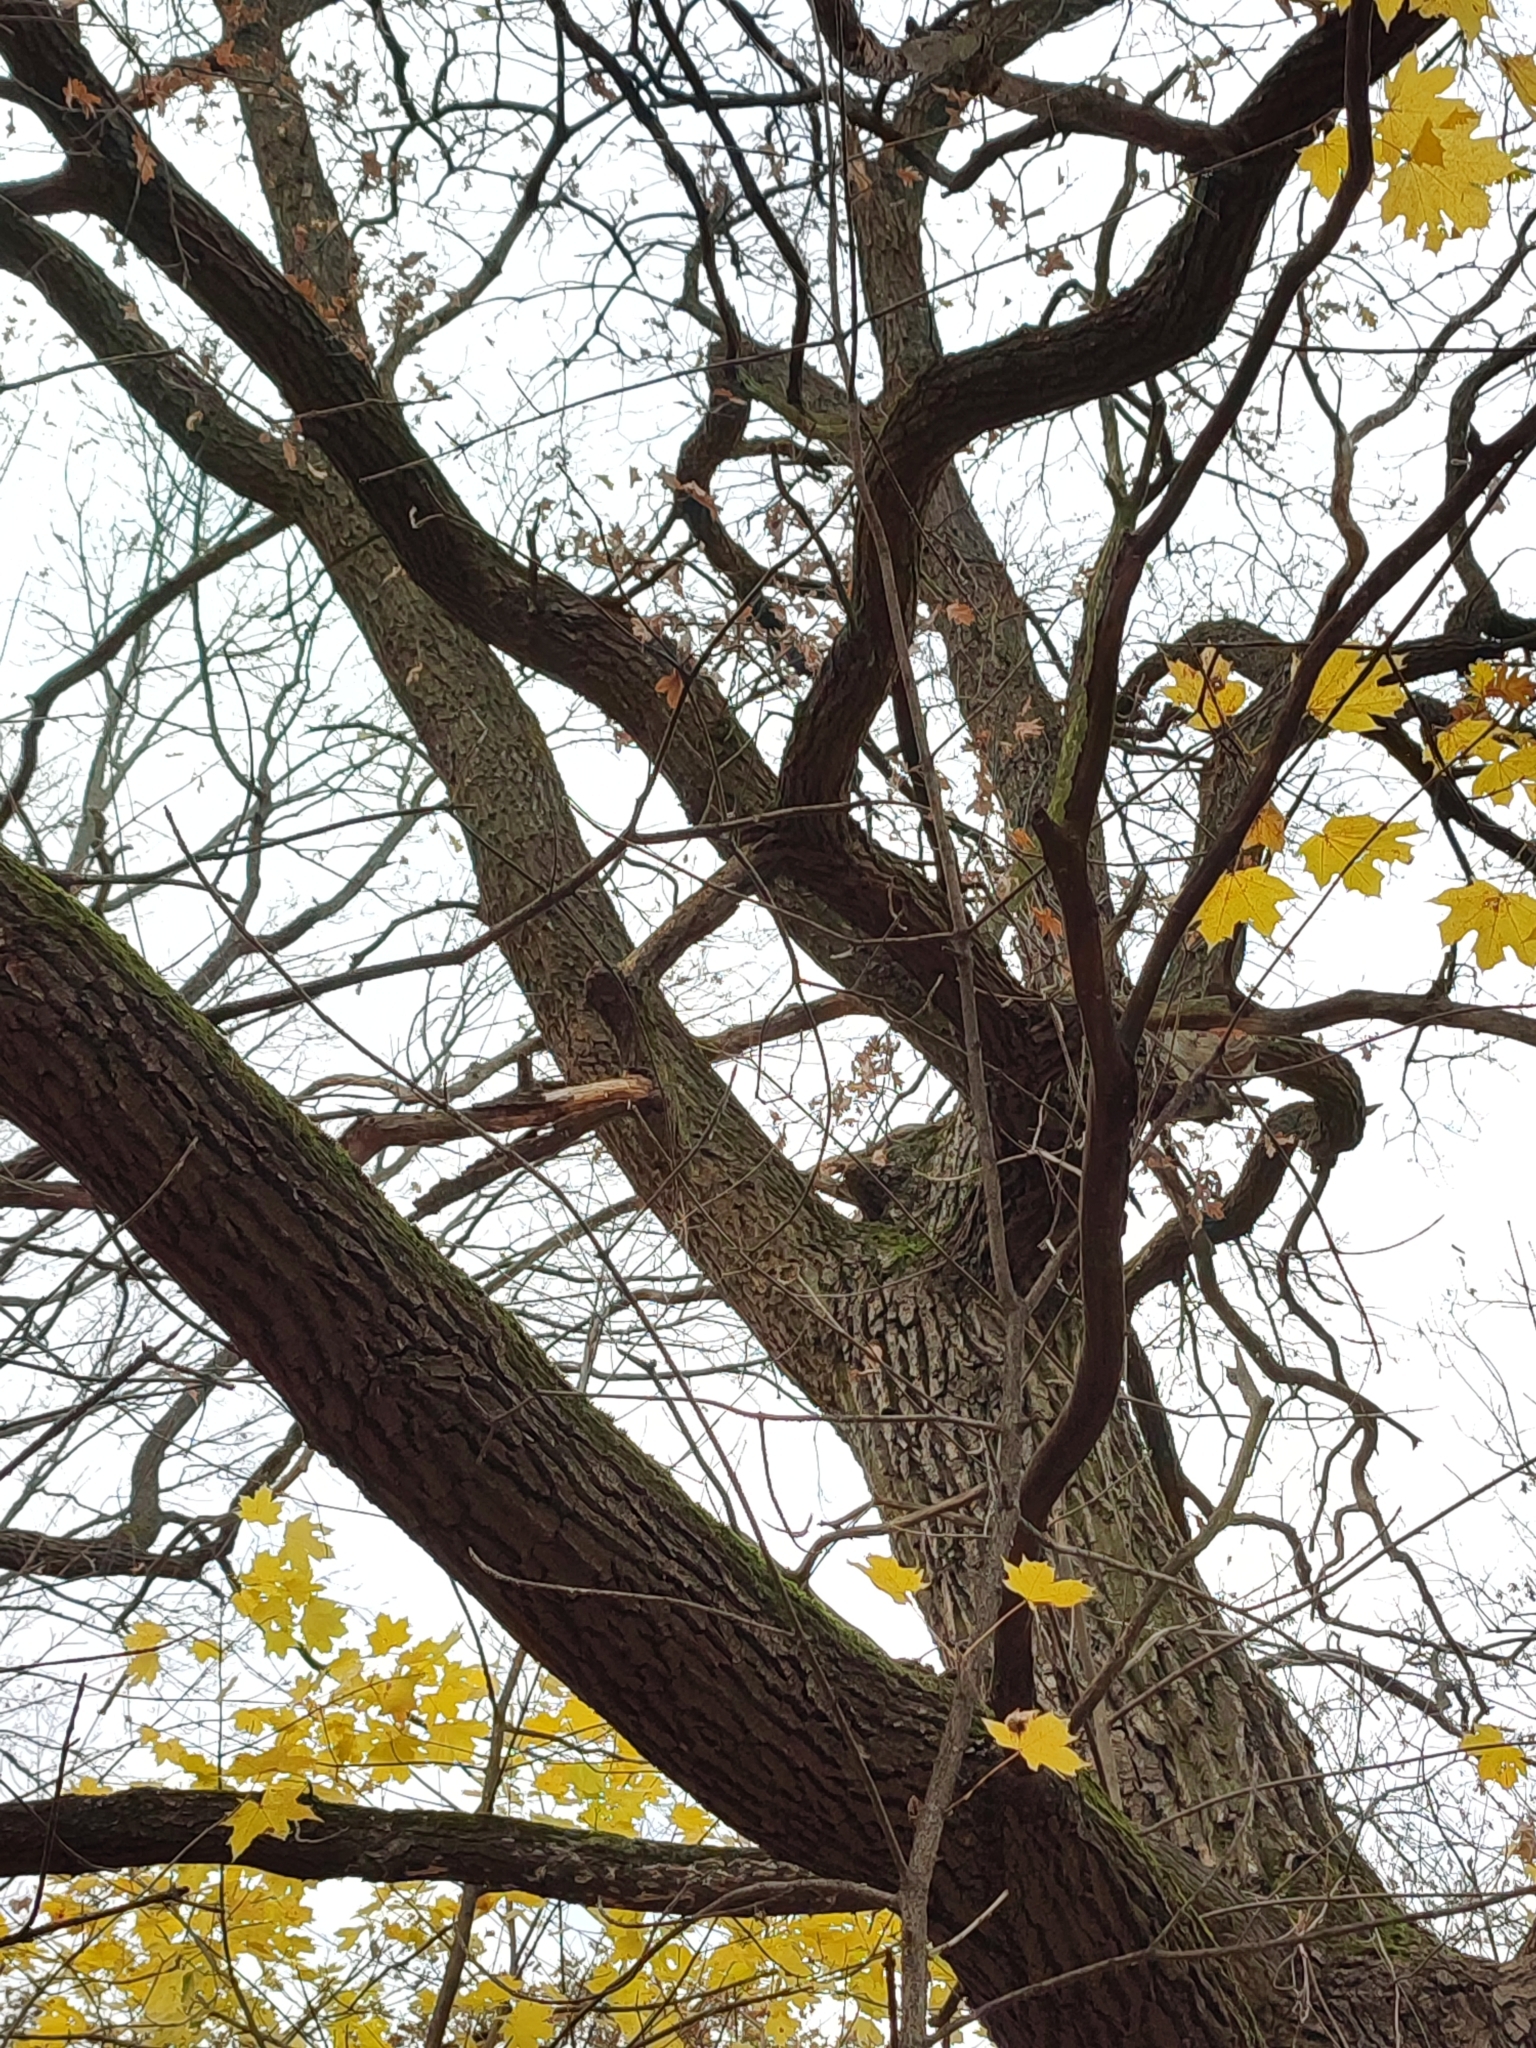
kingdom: Plantae
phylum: Tracheophyta
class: Magnoliopsida
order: Fagales
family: Fagaceae
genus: Quercus
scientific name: Quercus robur
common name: Pedunculate oak
